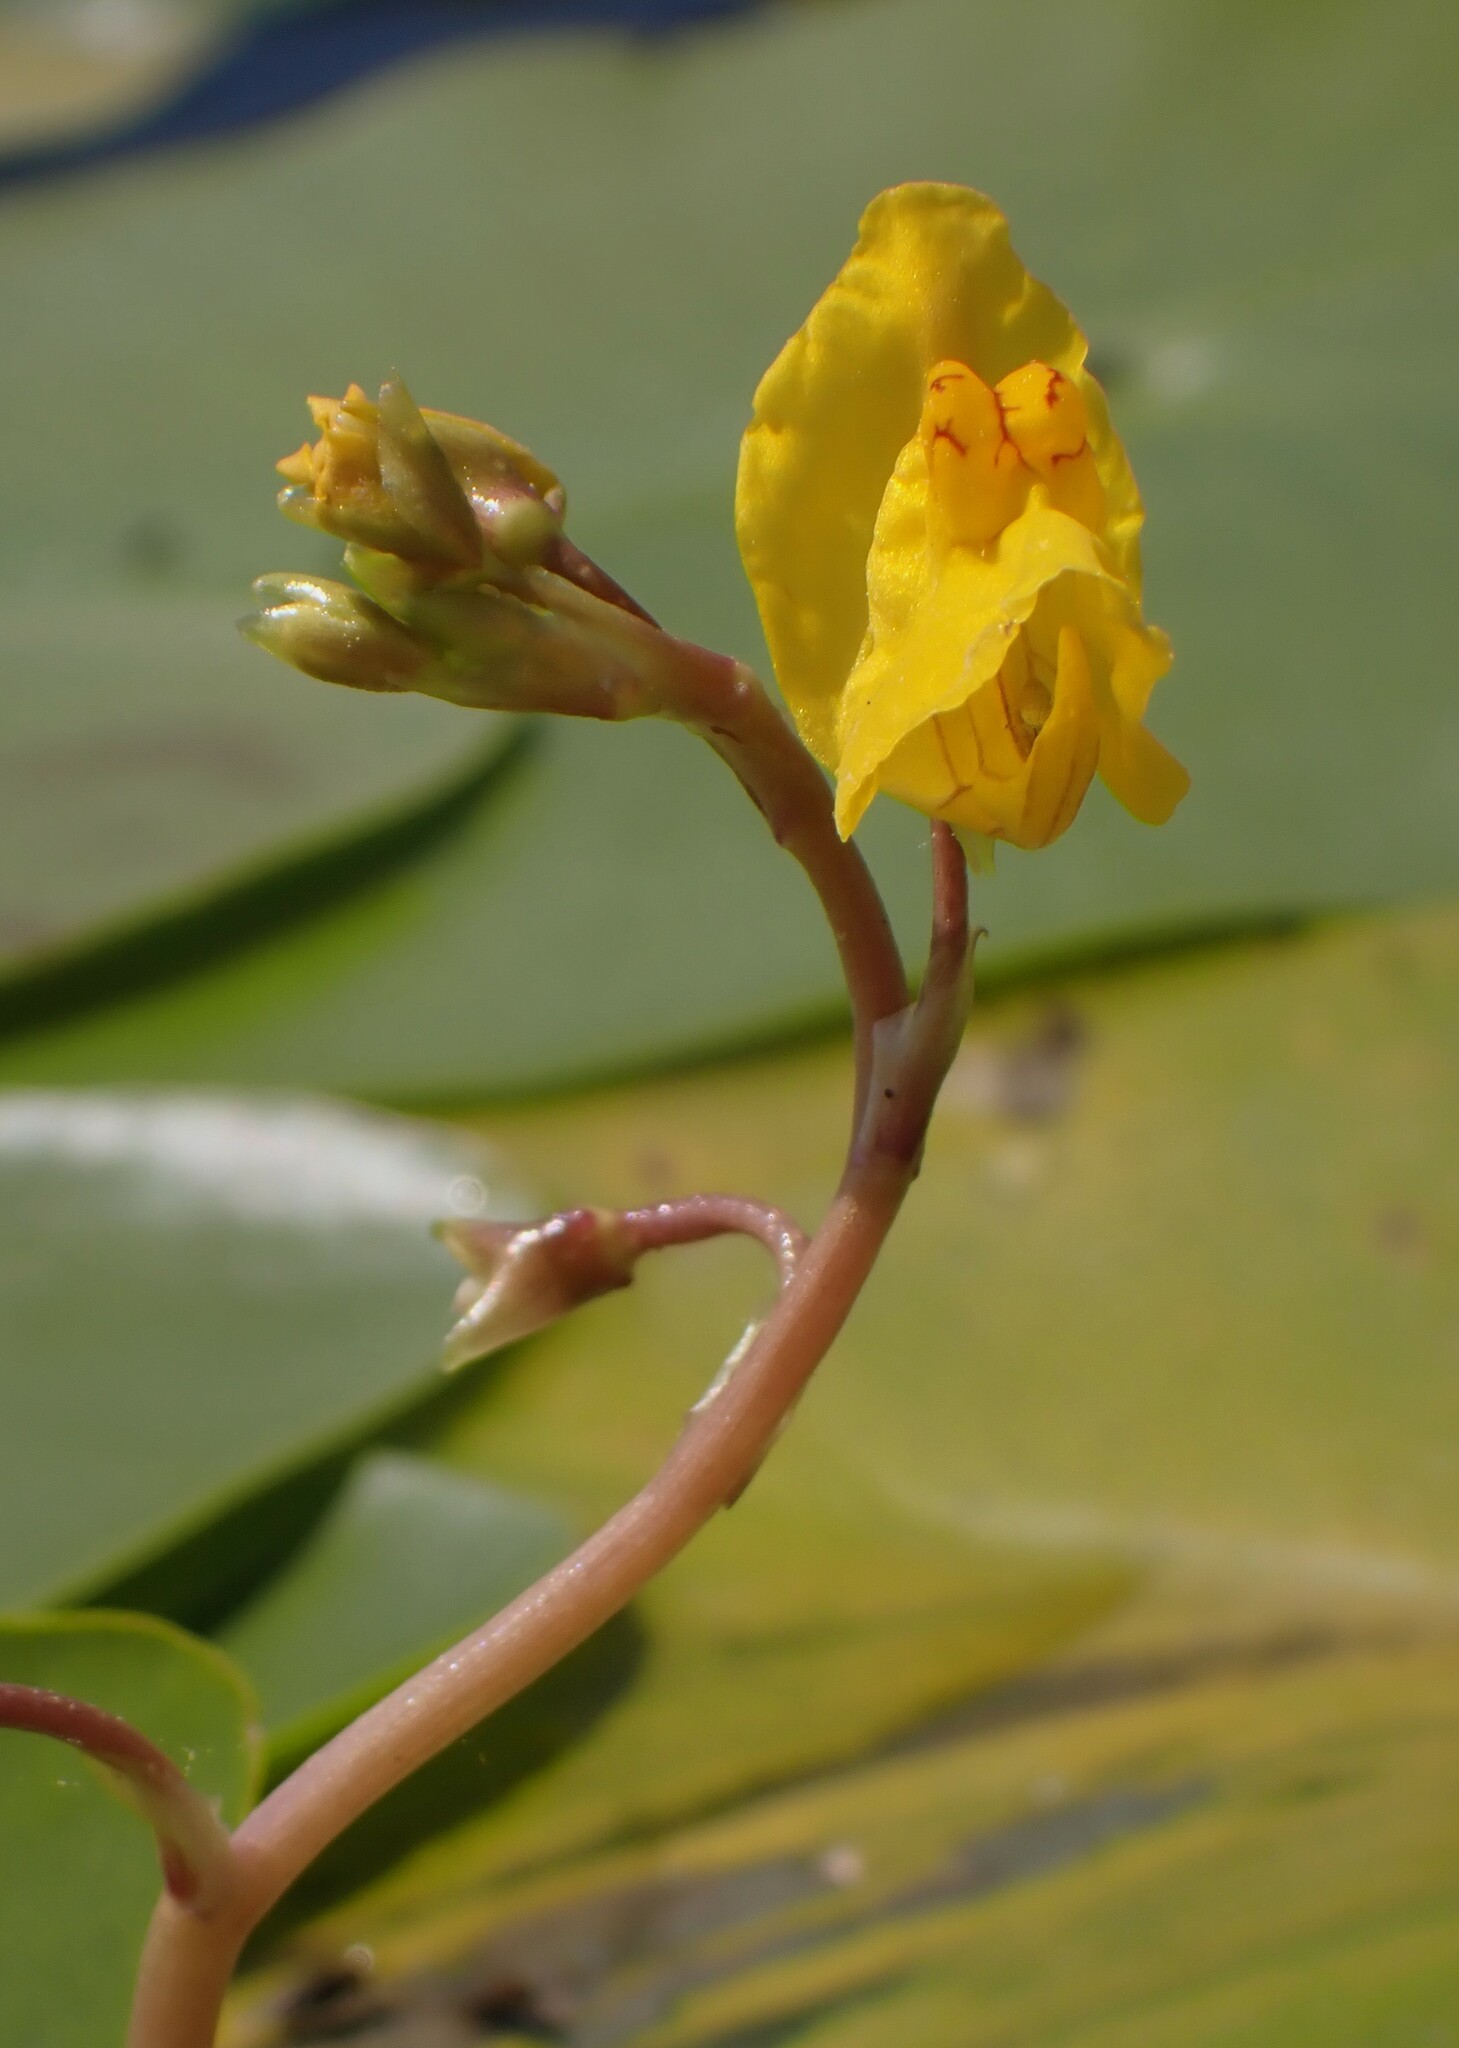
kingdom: Plantae
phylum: Tracheophyta
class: Magnoliopsida
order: Lamiales
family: Lentibulariaceae
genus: Utricularia
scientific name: Utricularia macrorhiza
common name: Common bladderwort
